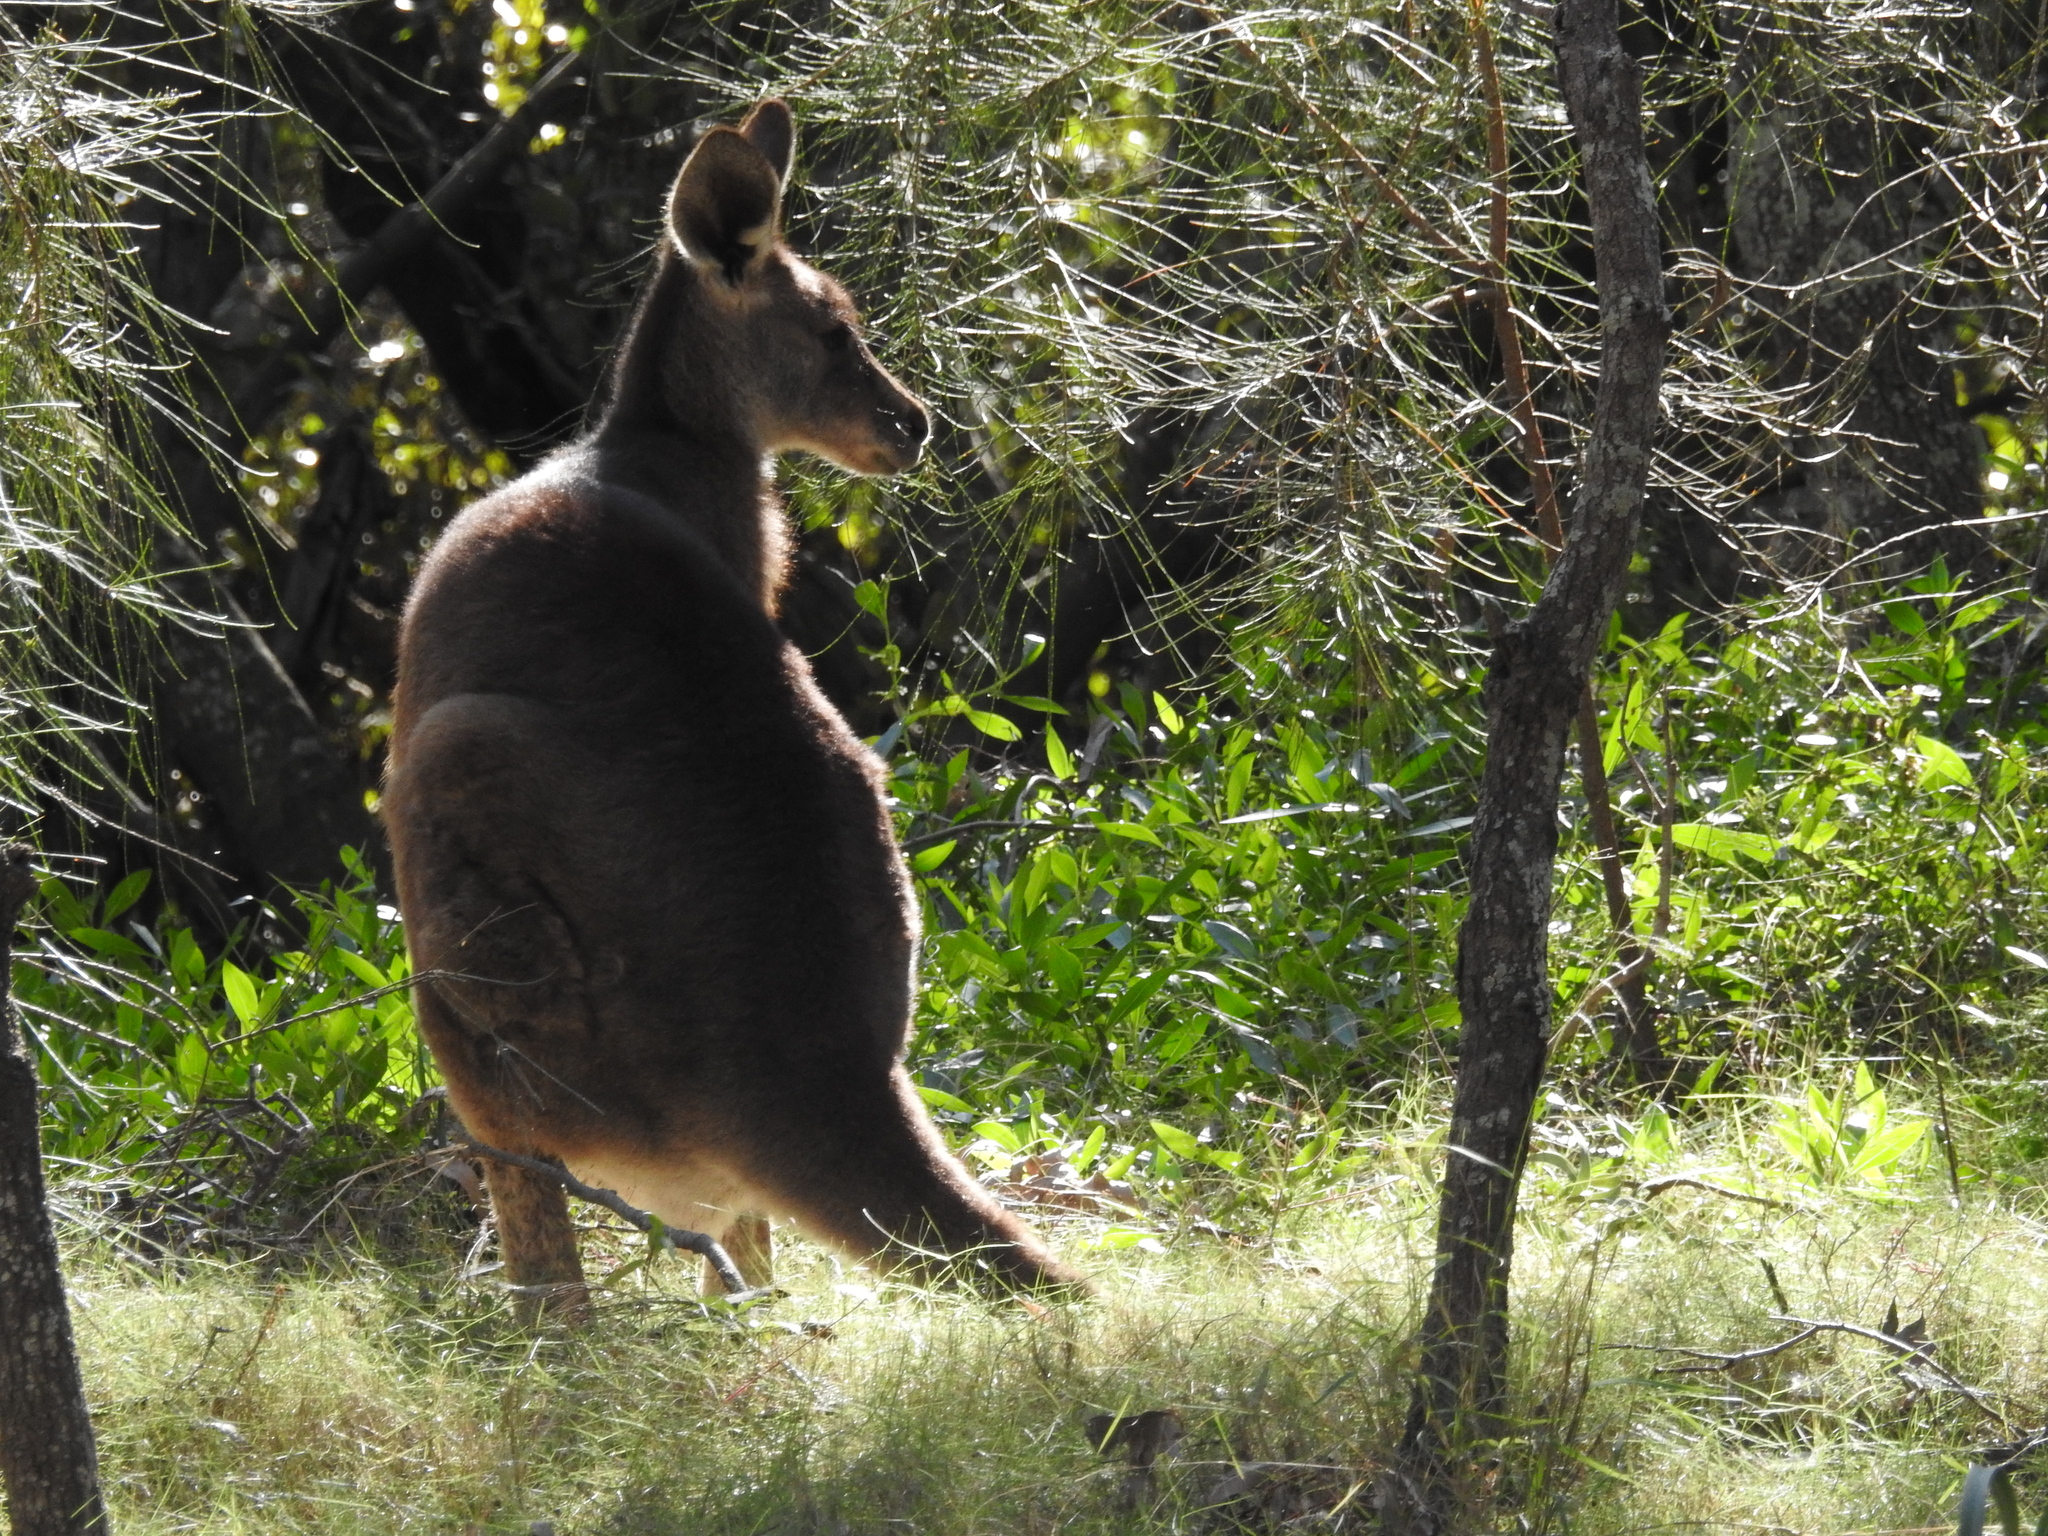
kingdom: Animalia
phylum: Chordata
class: Mammalia
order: Diprotodontia
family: Macropodidae
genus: Macropus
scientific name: Macropus giganteus
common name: Eastern grey kangaroo
